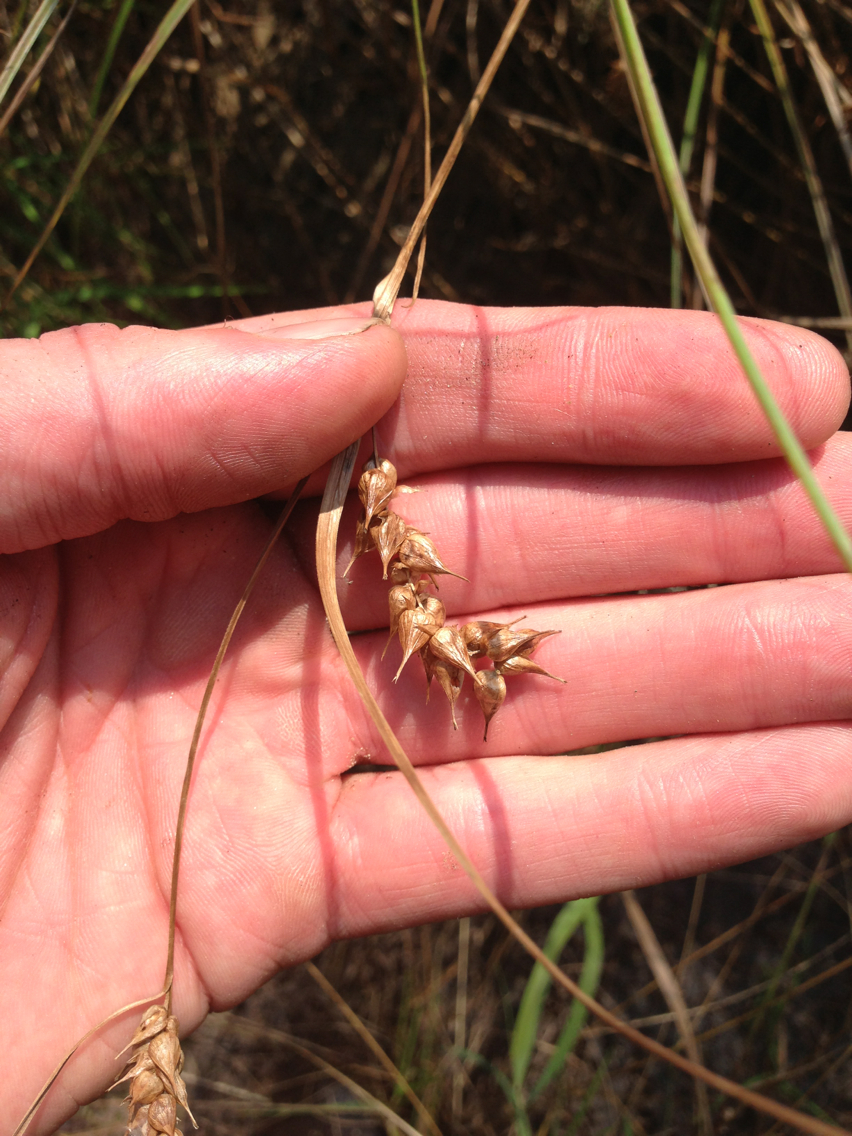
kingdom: Plantae
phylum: Tracheophyta
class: Liliopsida
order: Poales
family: Cyperaceae
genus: Carex
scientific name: Carex tuckermanii
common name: Tuckerman's sedge
